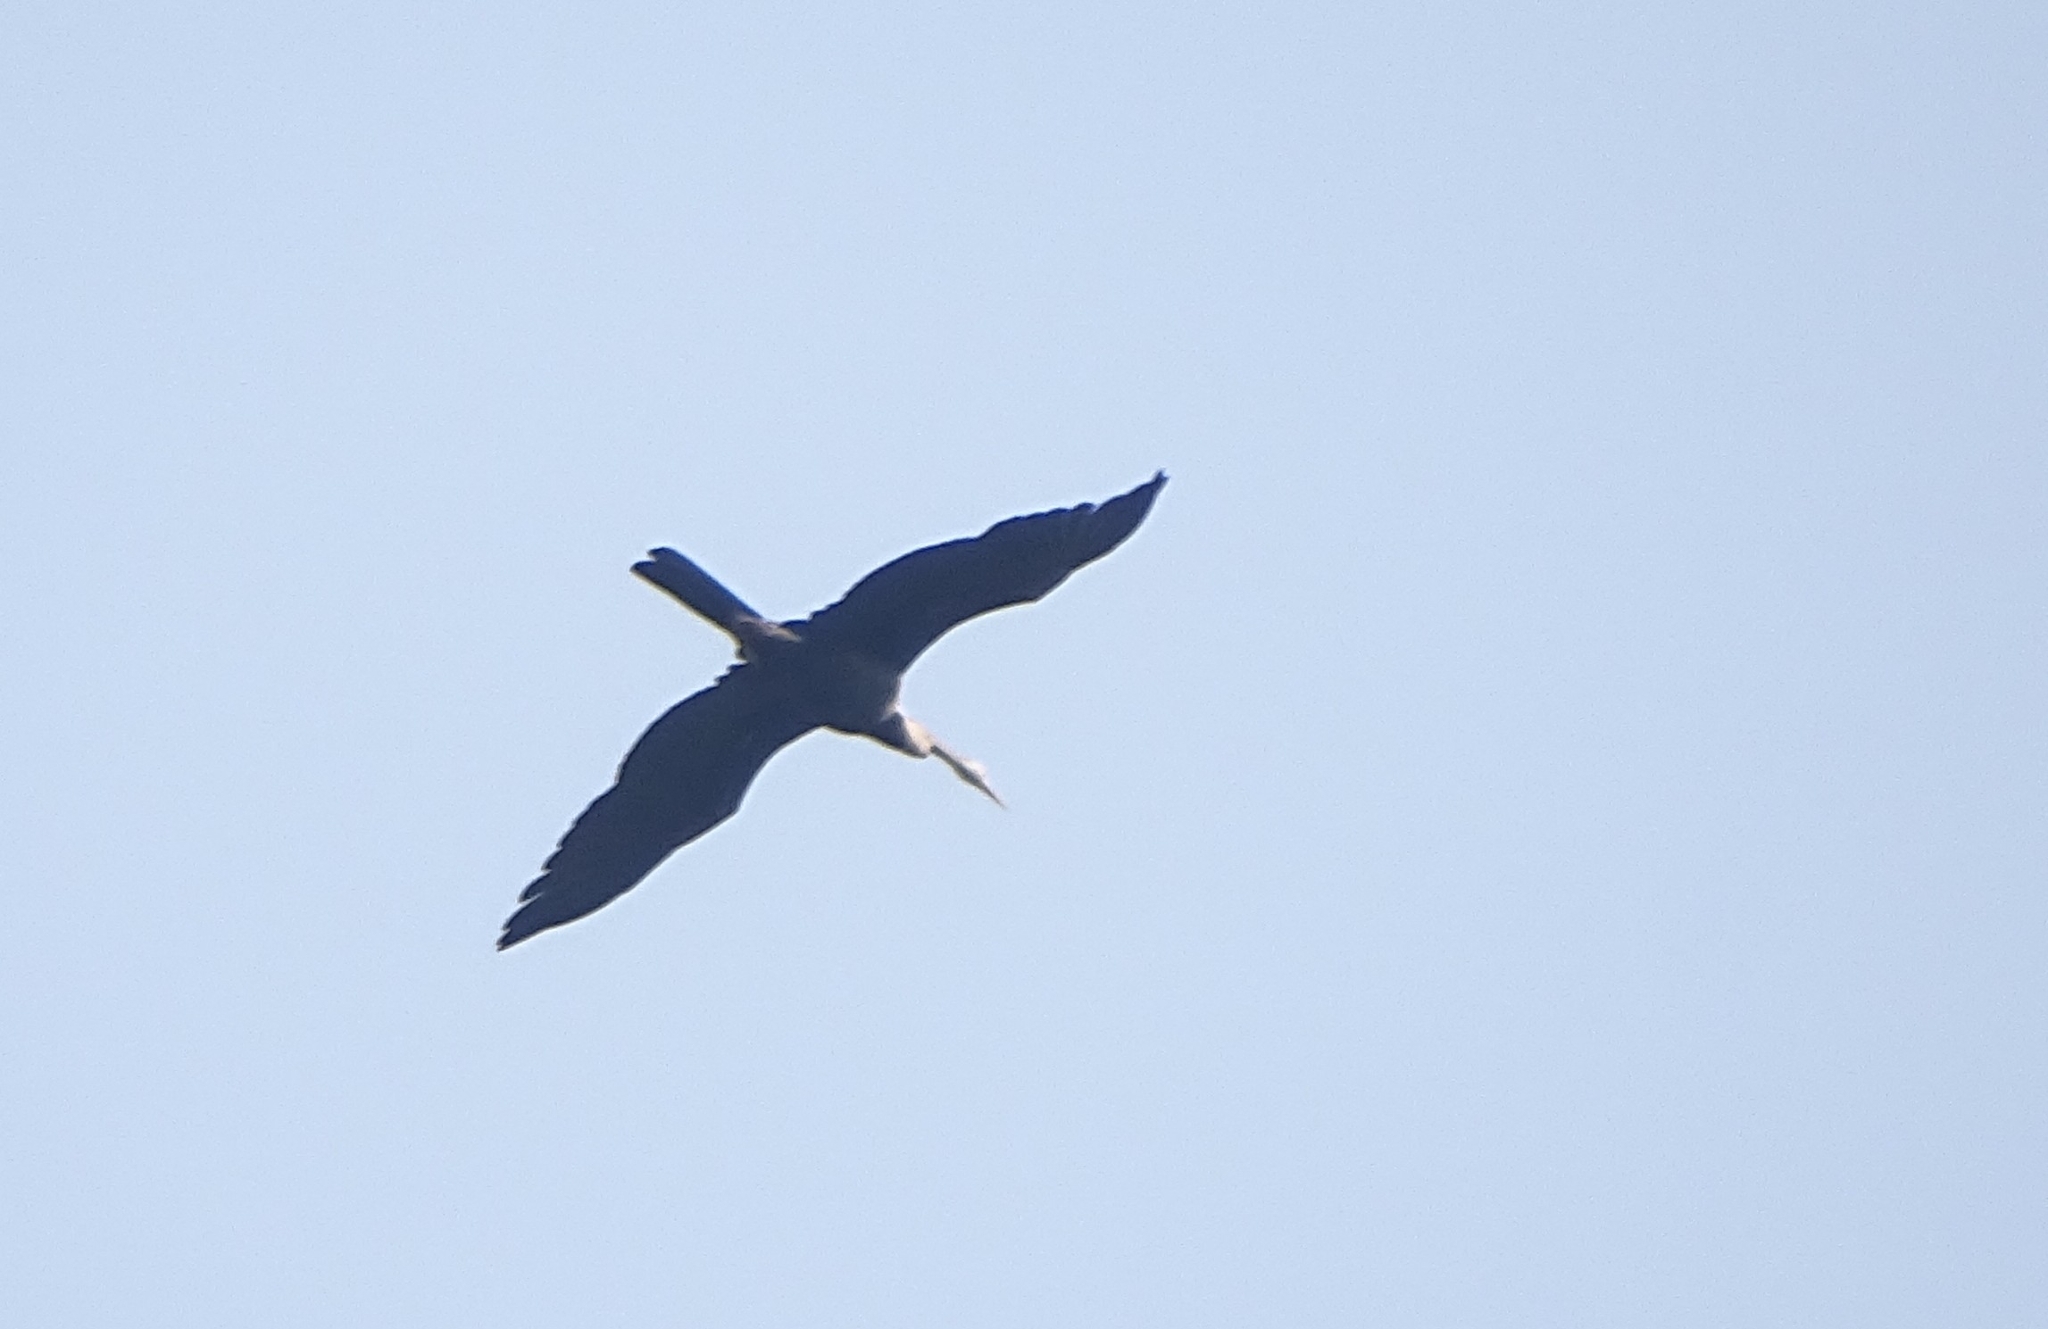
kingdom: Animalia
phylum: Chordata
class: Aves
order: Suliformes
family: Anhingidae
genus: Anhinga
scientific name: Anhinga melanogaster
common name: Oriental darter
